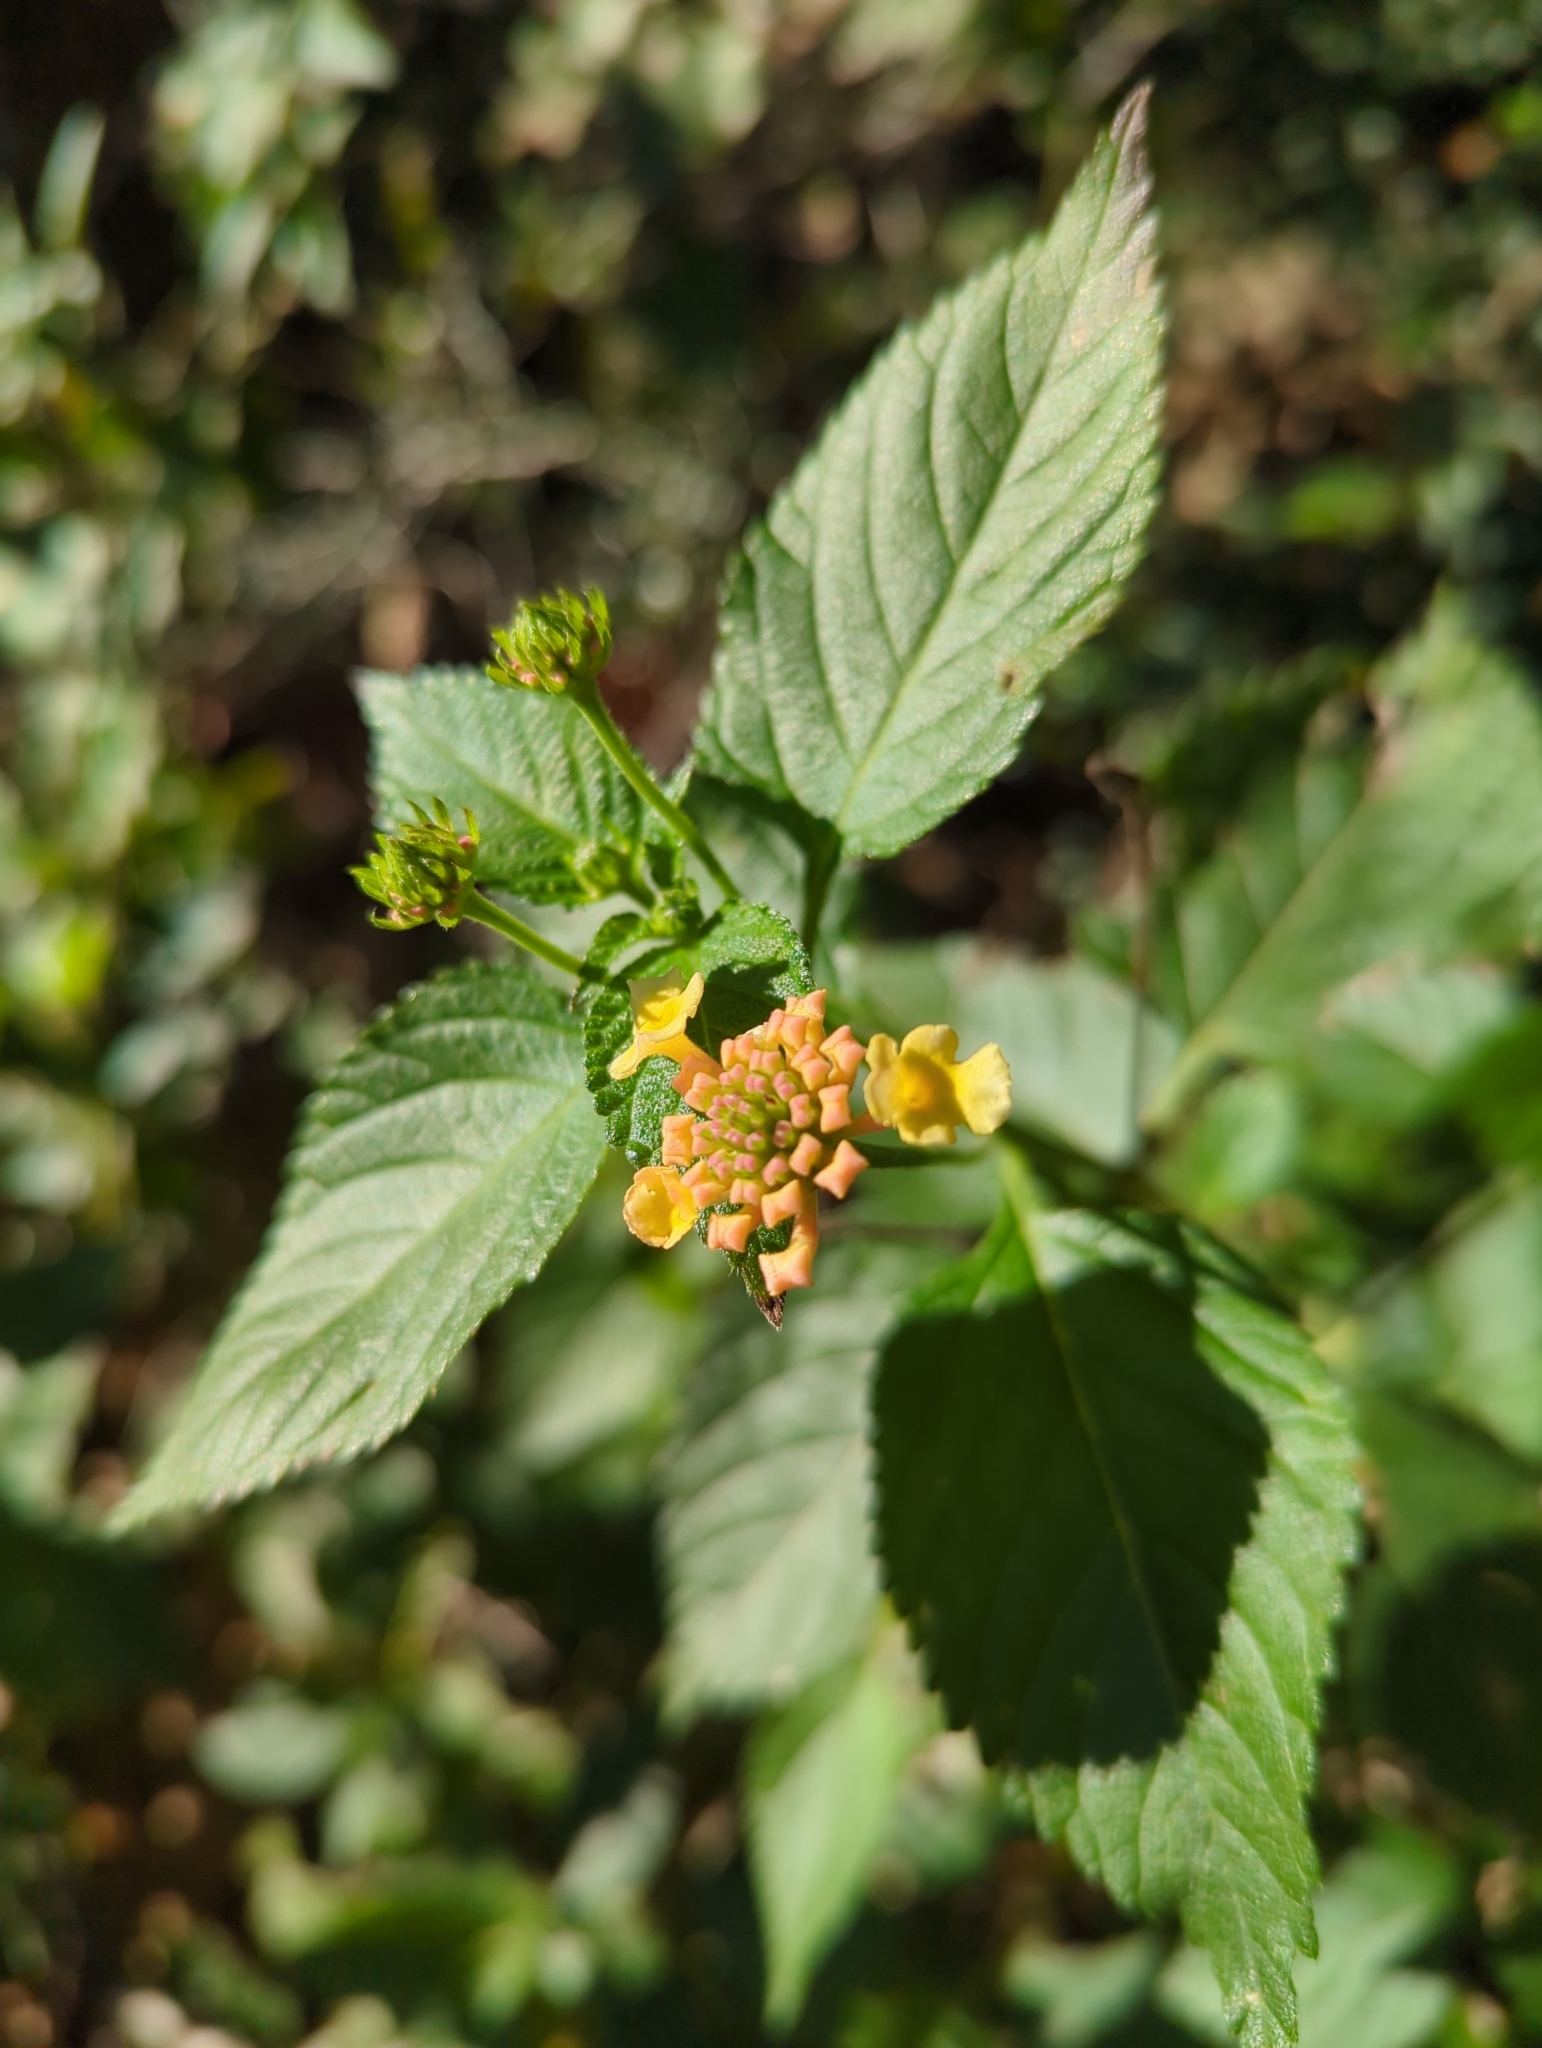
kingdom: Plantae
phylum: Tracheophyta
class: Magnoliopsida
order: Lamiales
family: Verbenaceae
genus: Lantana
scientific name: Lantana strigocamara
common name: Lantana
